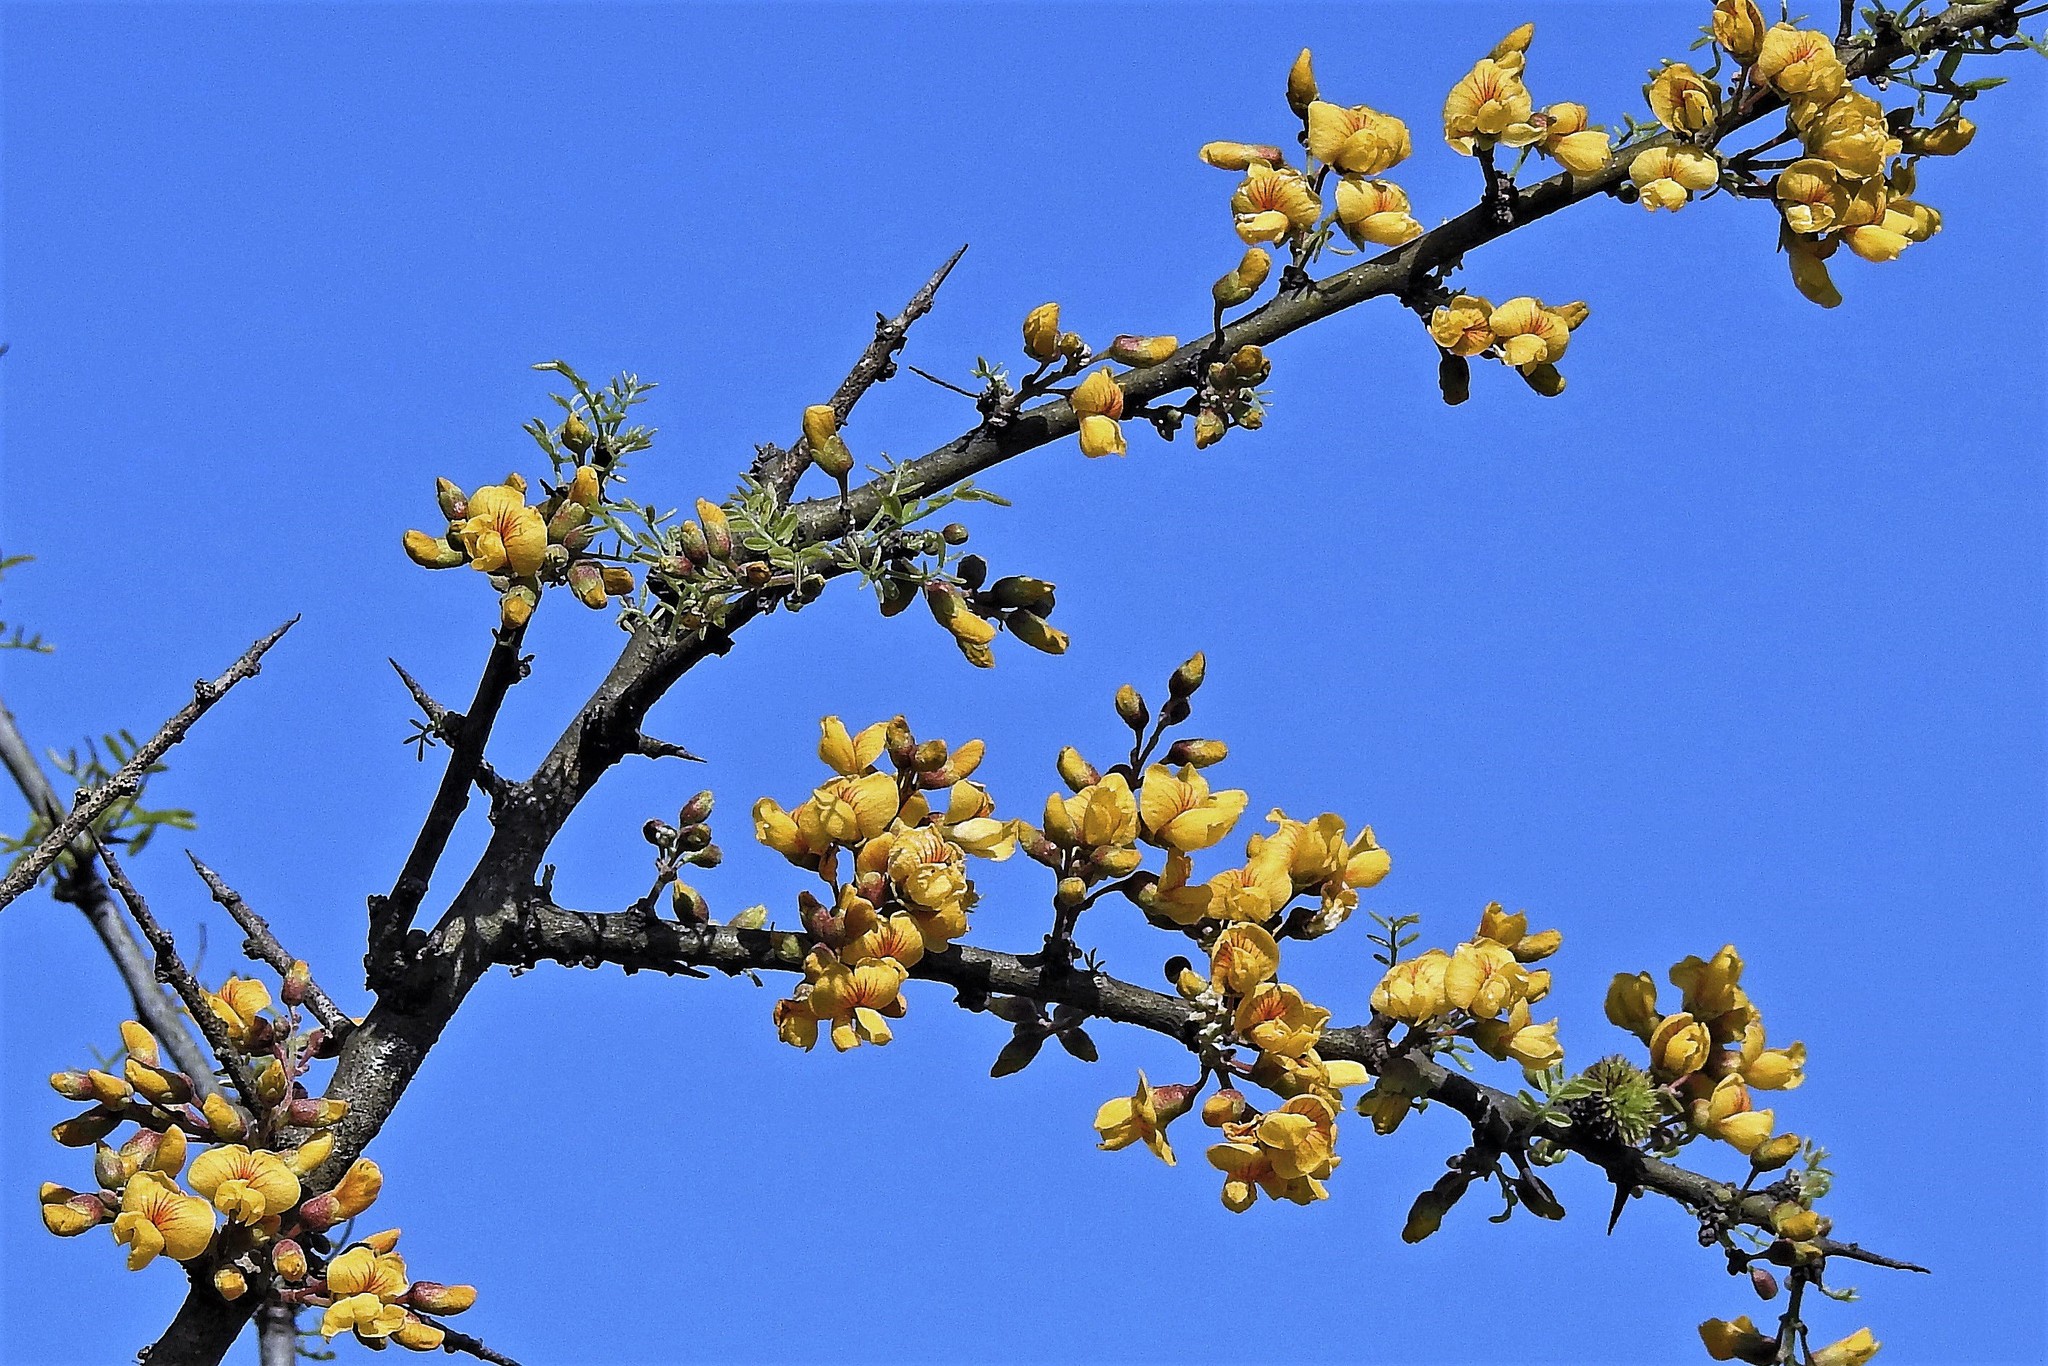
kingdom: Plantae
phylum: Tracheophyta
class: Magnoliopsida
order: Fabales
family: Fabaceae
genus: Geoffroea
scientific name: Geoffroea decorticans
